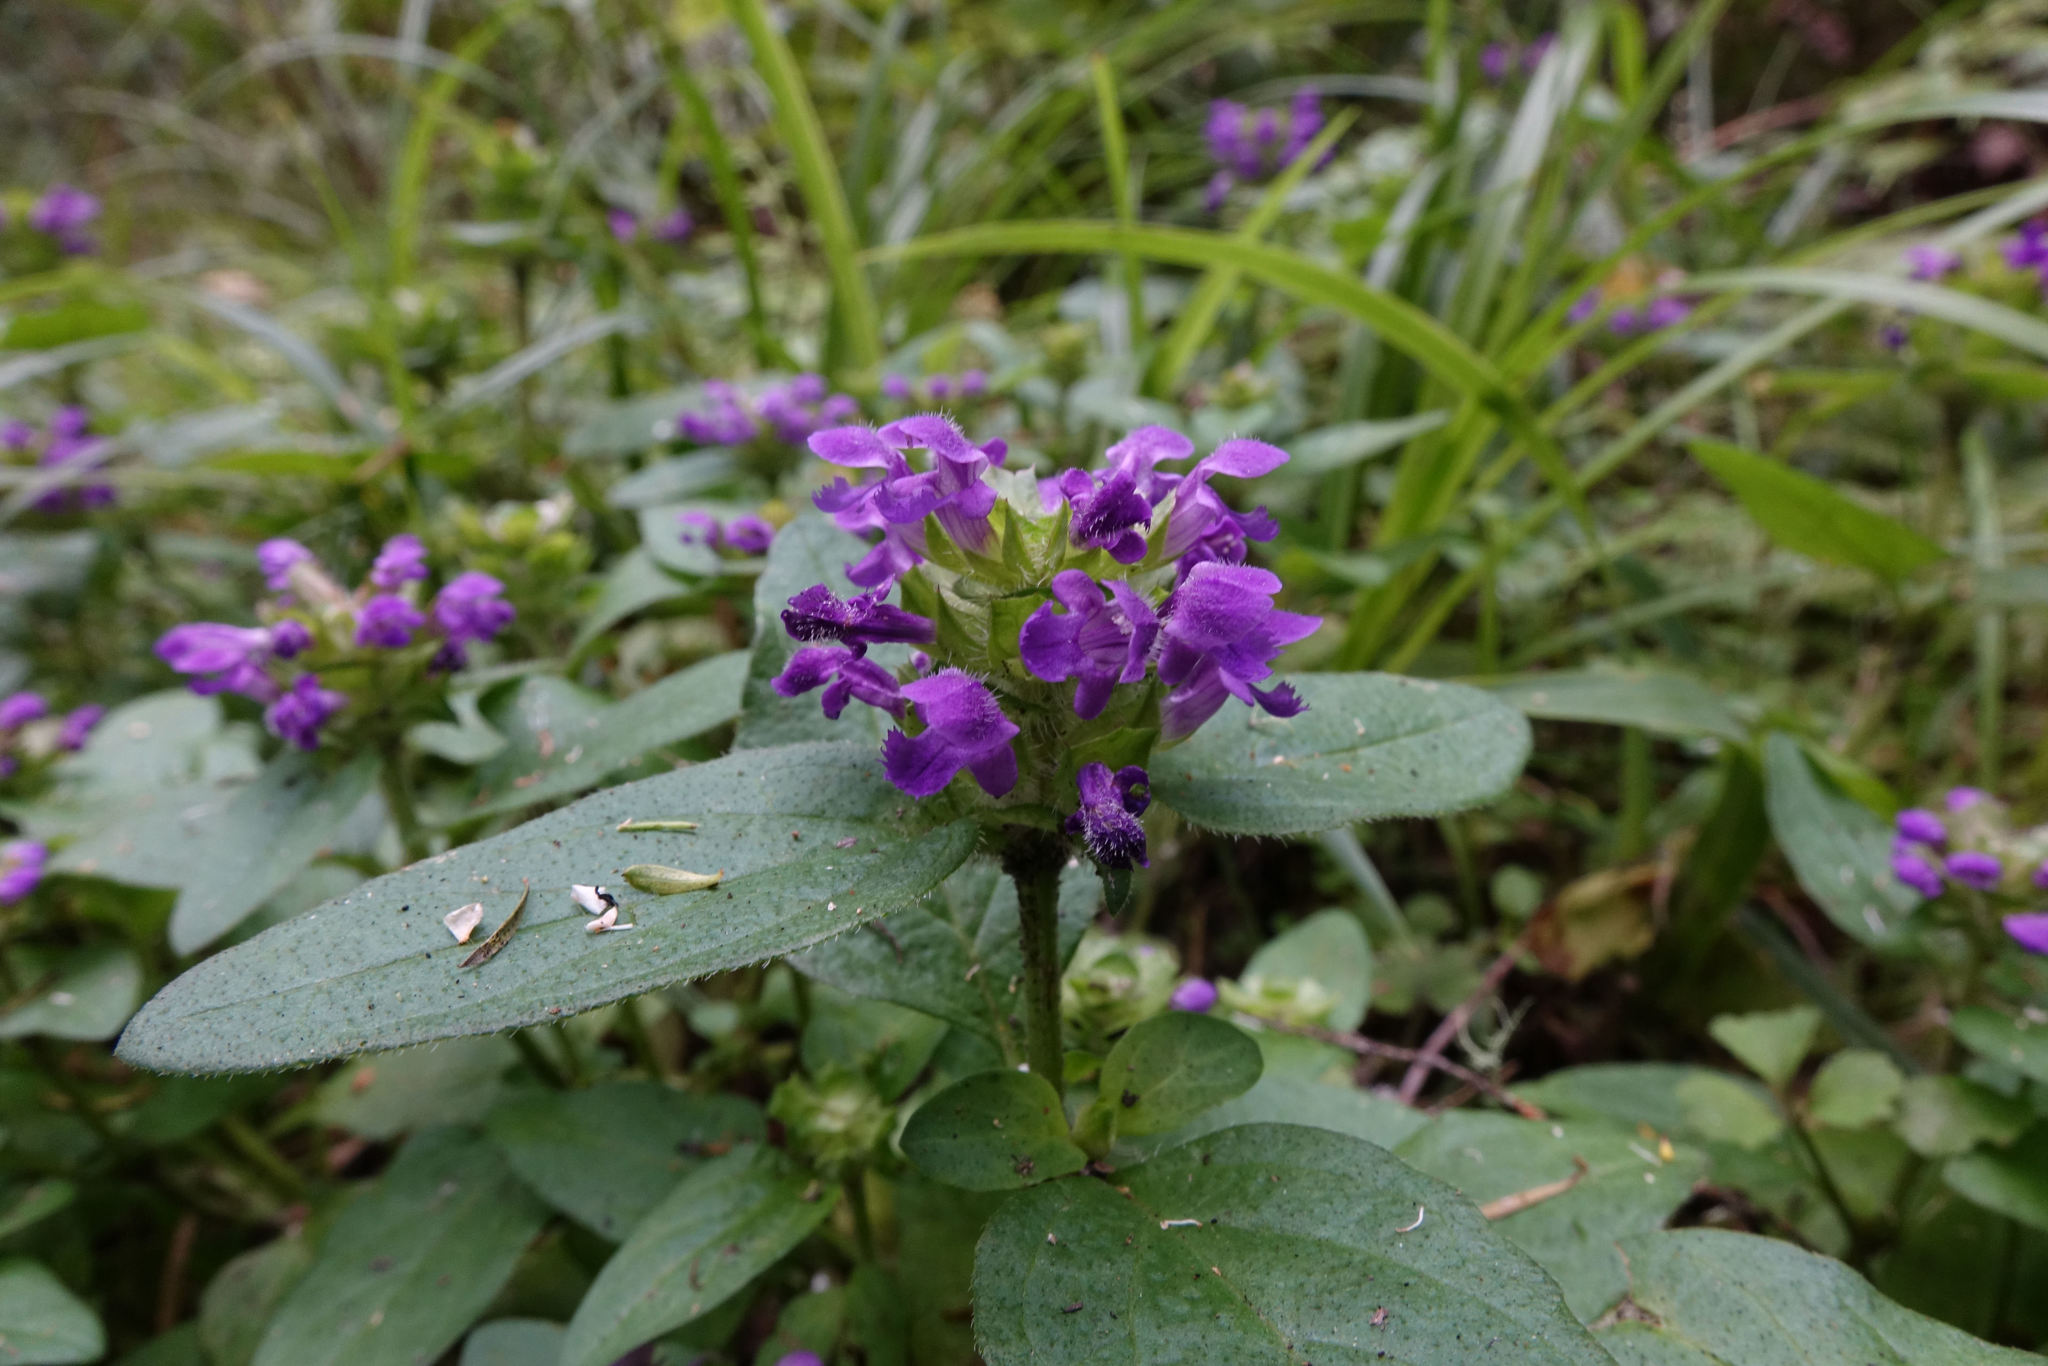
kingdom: Plantae
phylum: Tracheophyta
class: Magnoliopsida
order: Lamiales
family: Lamiaceae
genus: Prunella
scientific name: Prunella vulgaris
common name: Heal-all
